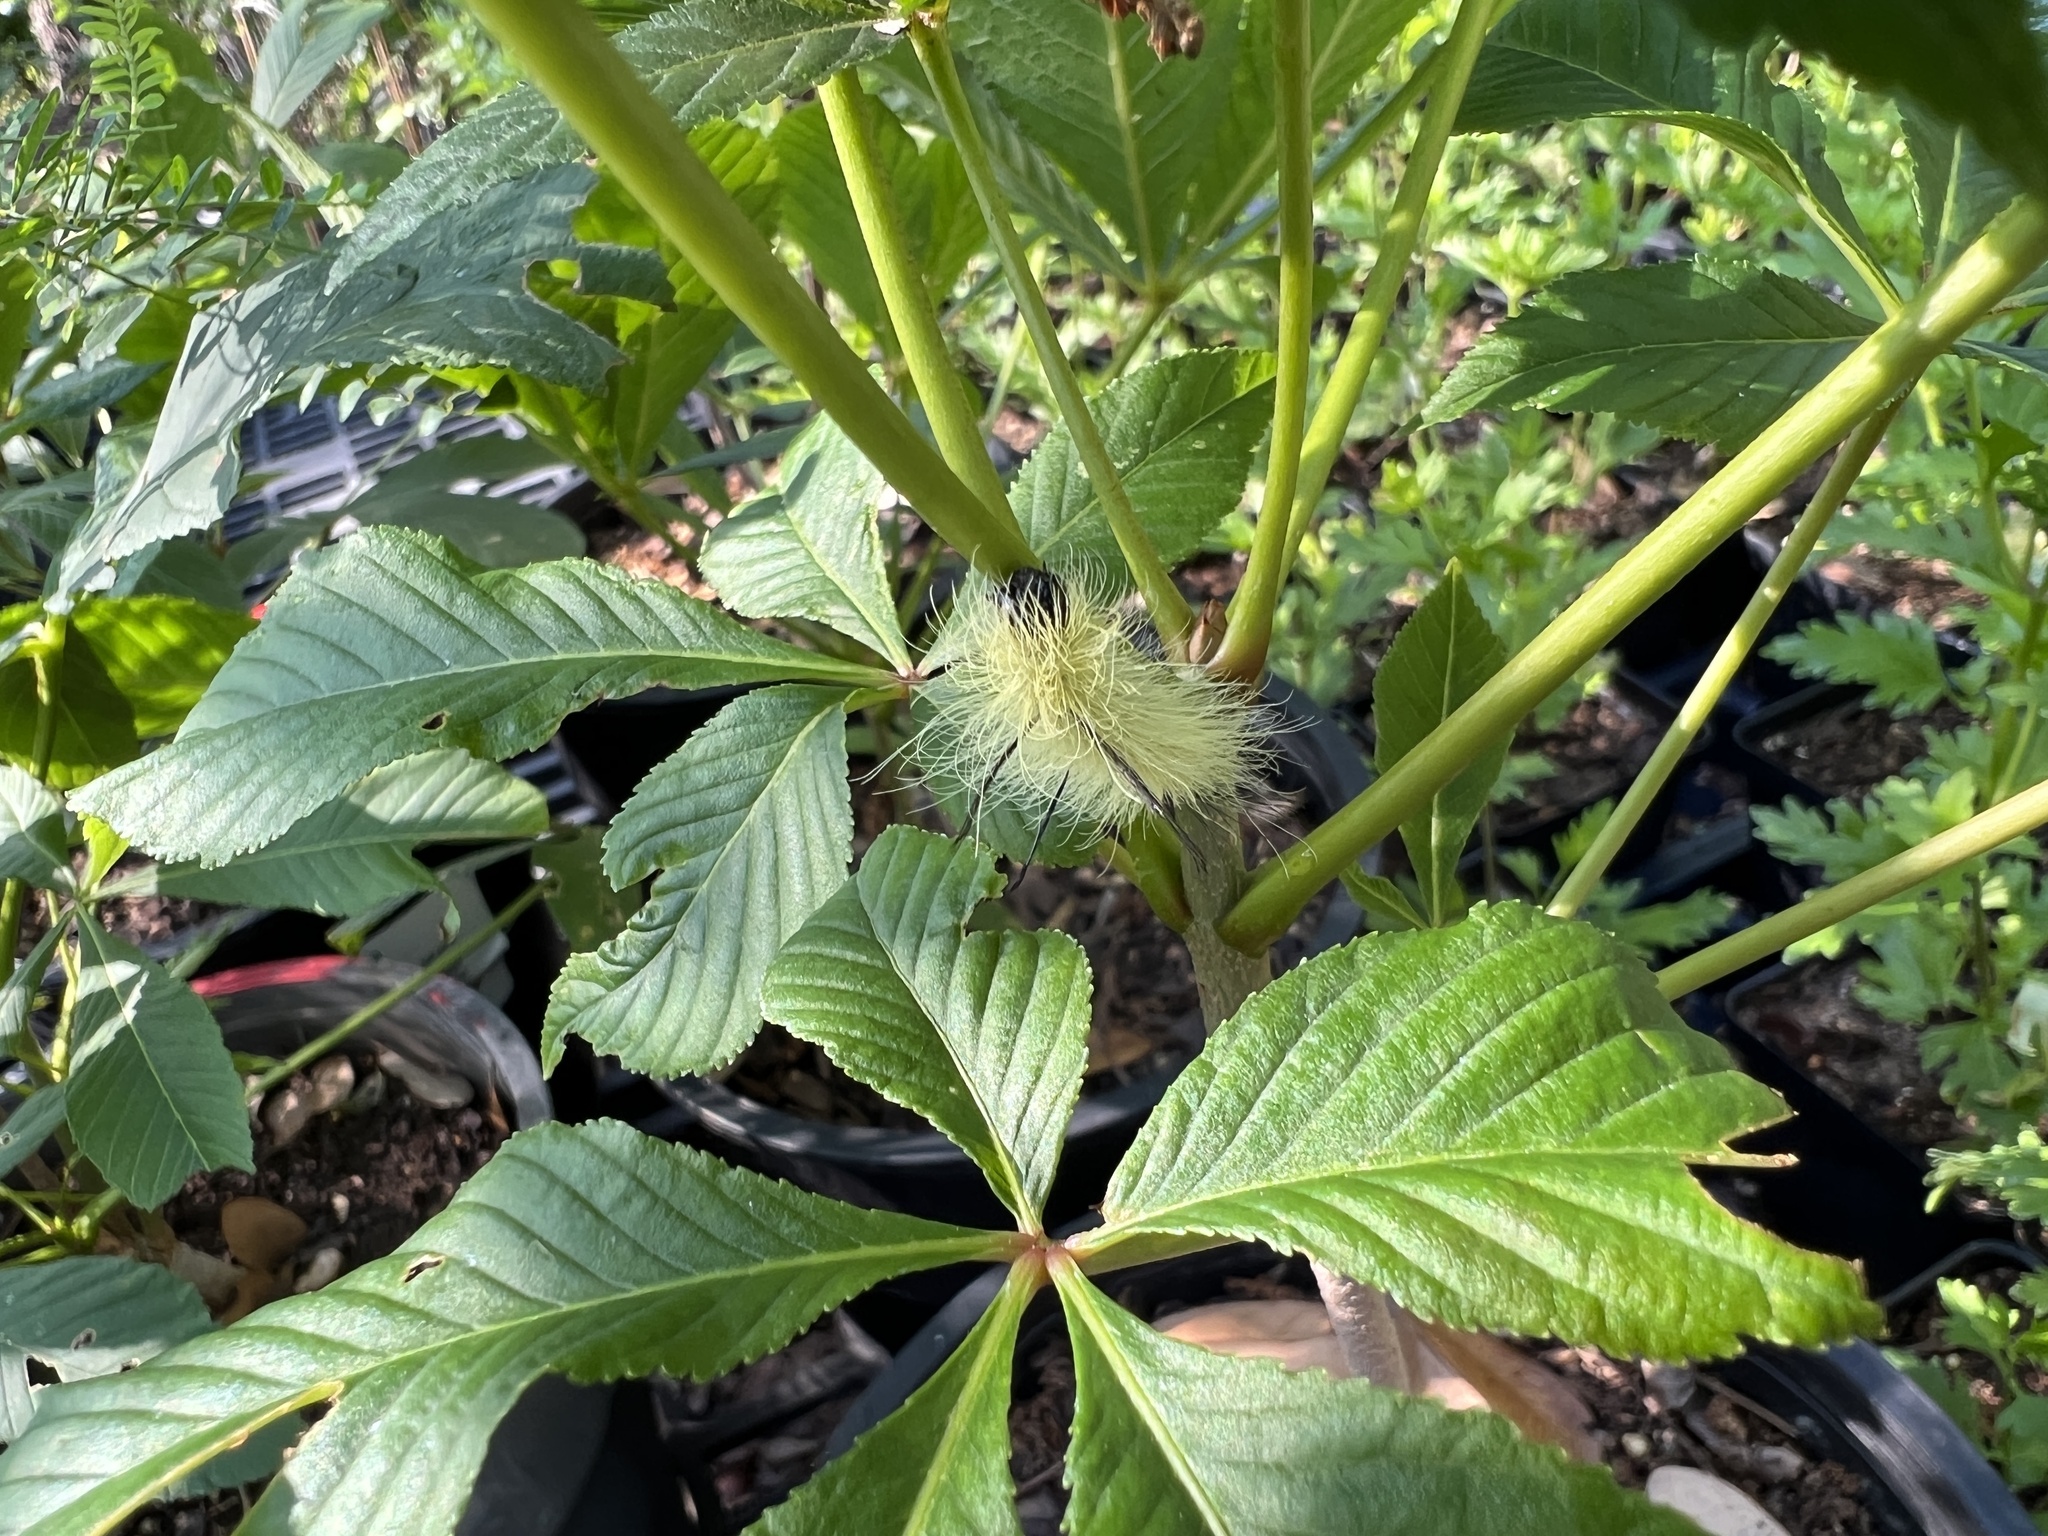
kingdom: Animalia
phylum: Arthropoda
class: Insecta
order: Lepidoptera
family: Noctuidae
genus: Acronicta
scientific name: Acronicta americana
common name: American dagger
